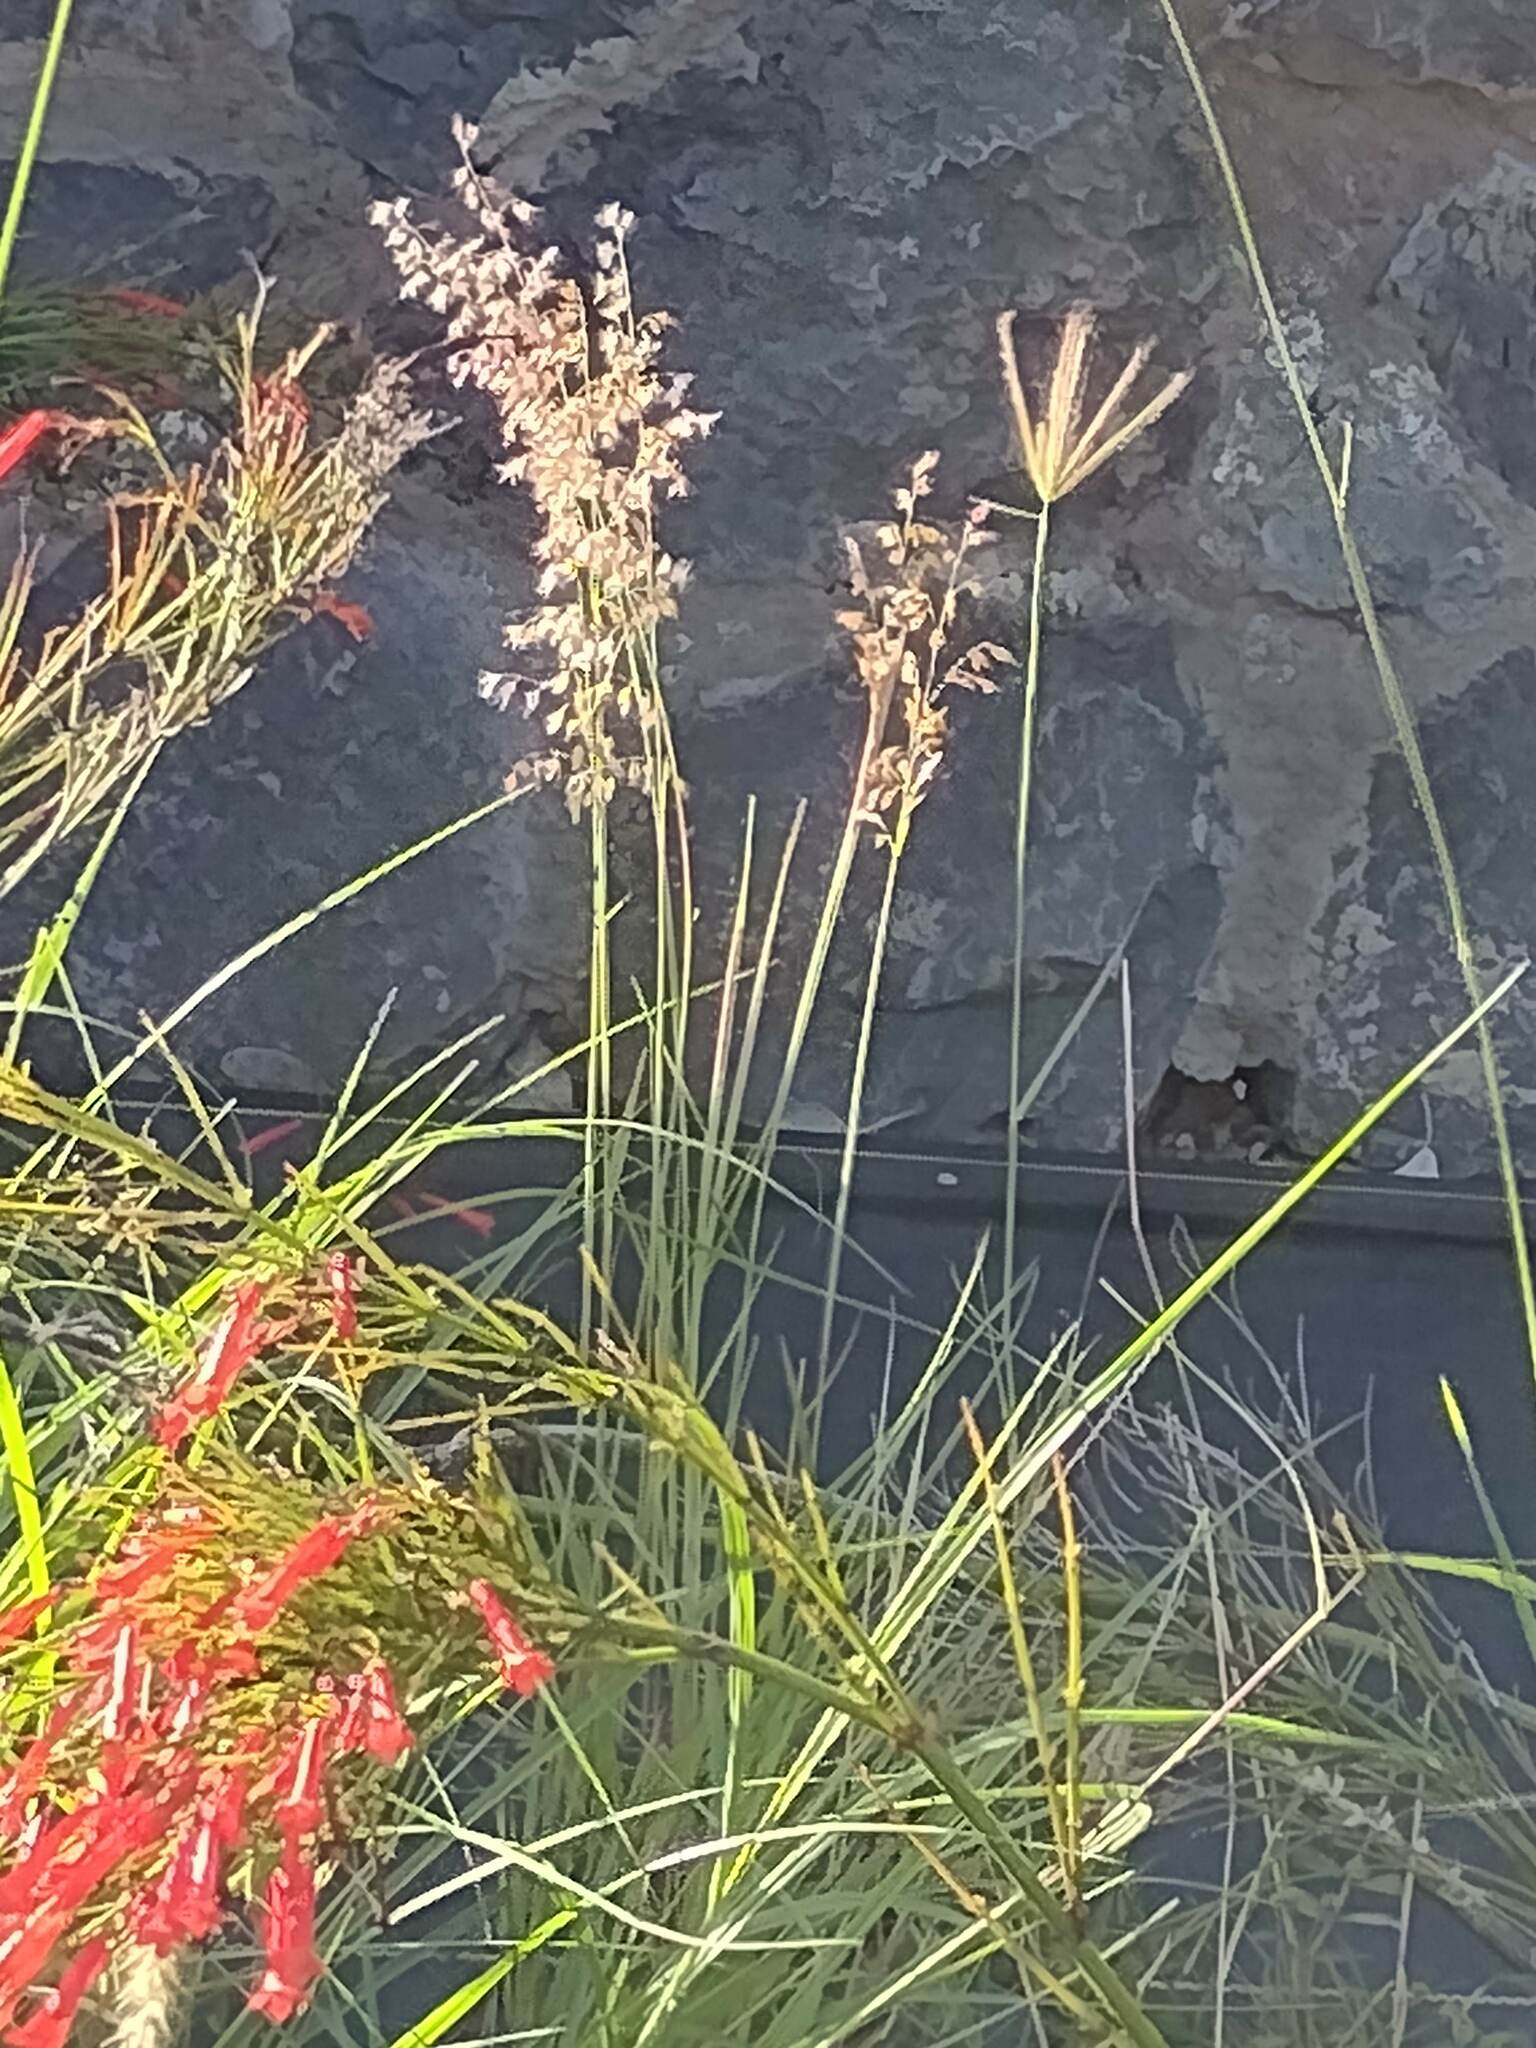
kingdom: Plantae
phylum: Tracheophyta
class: Liliopsida
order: Poales
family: Poaceae
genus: Melinis
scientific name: Melinis repens
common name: Rose natal grass
